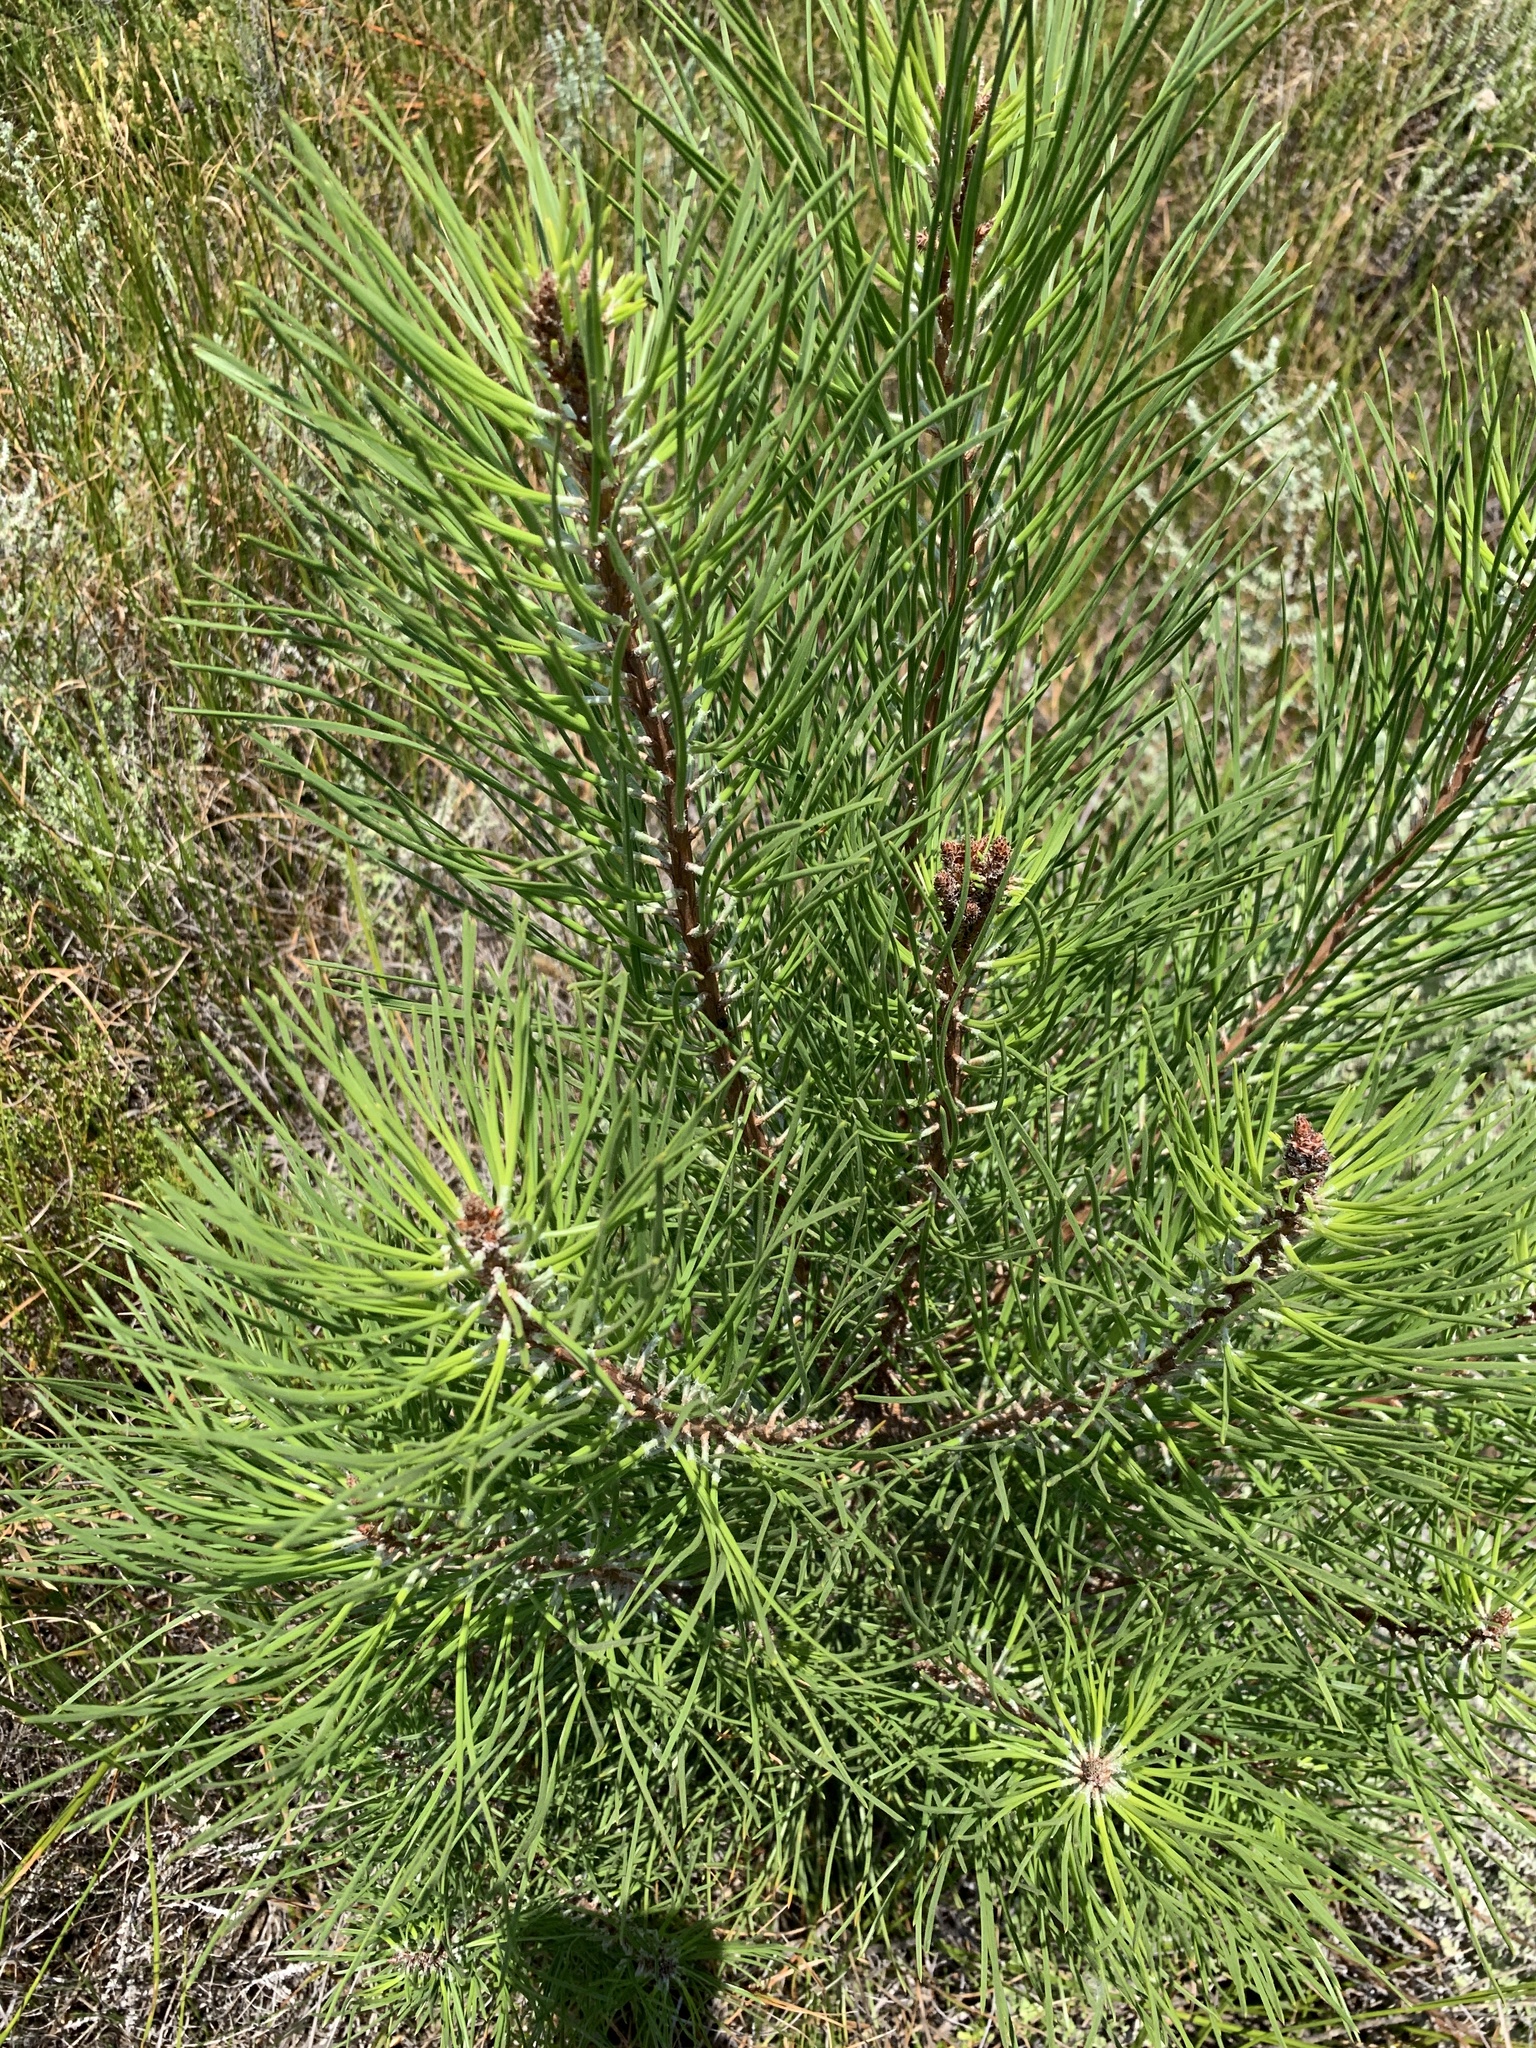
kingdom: Plantae
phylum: Tracheophyta
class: Pinopsida
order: Pinales
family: Pinaceae
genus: Pinus
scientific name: Pinus pinaster
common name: Maritime pine
